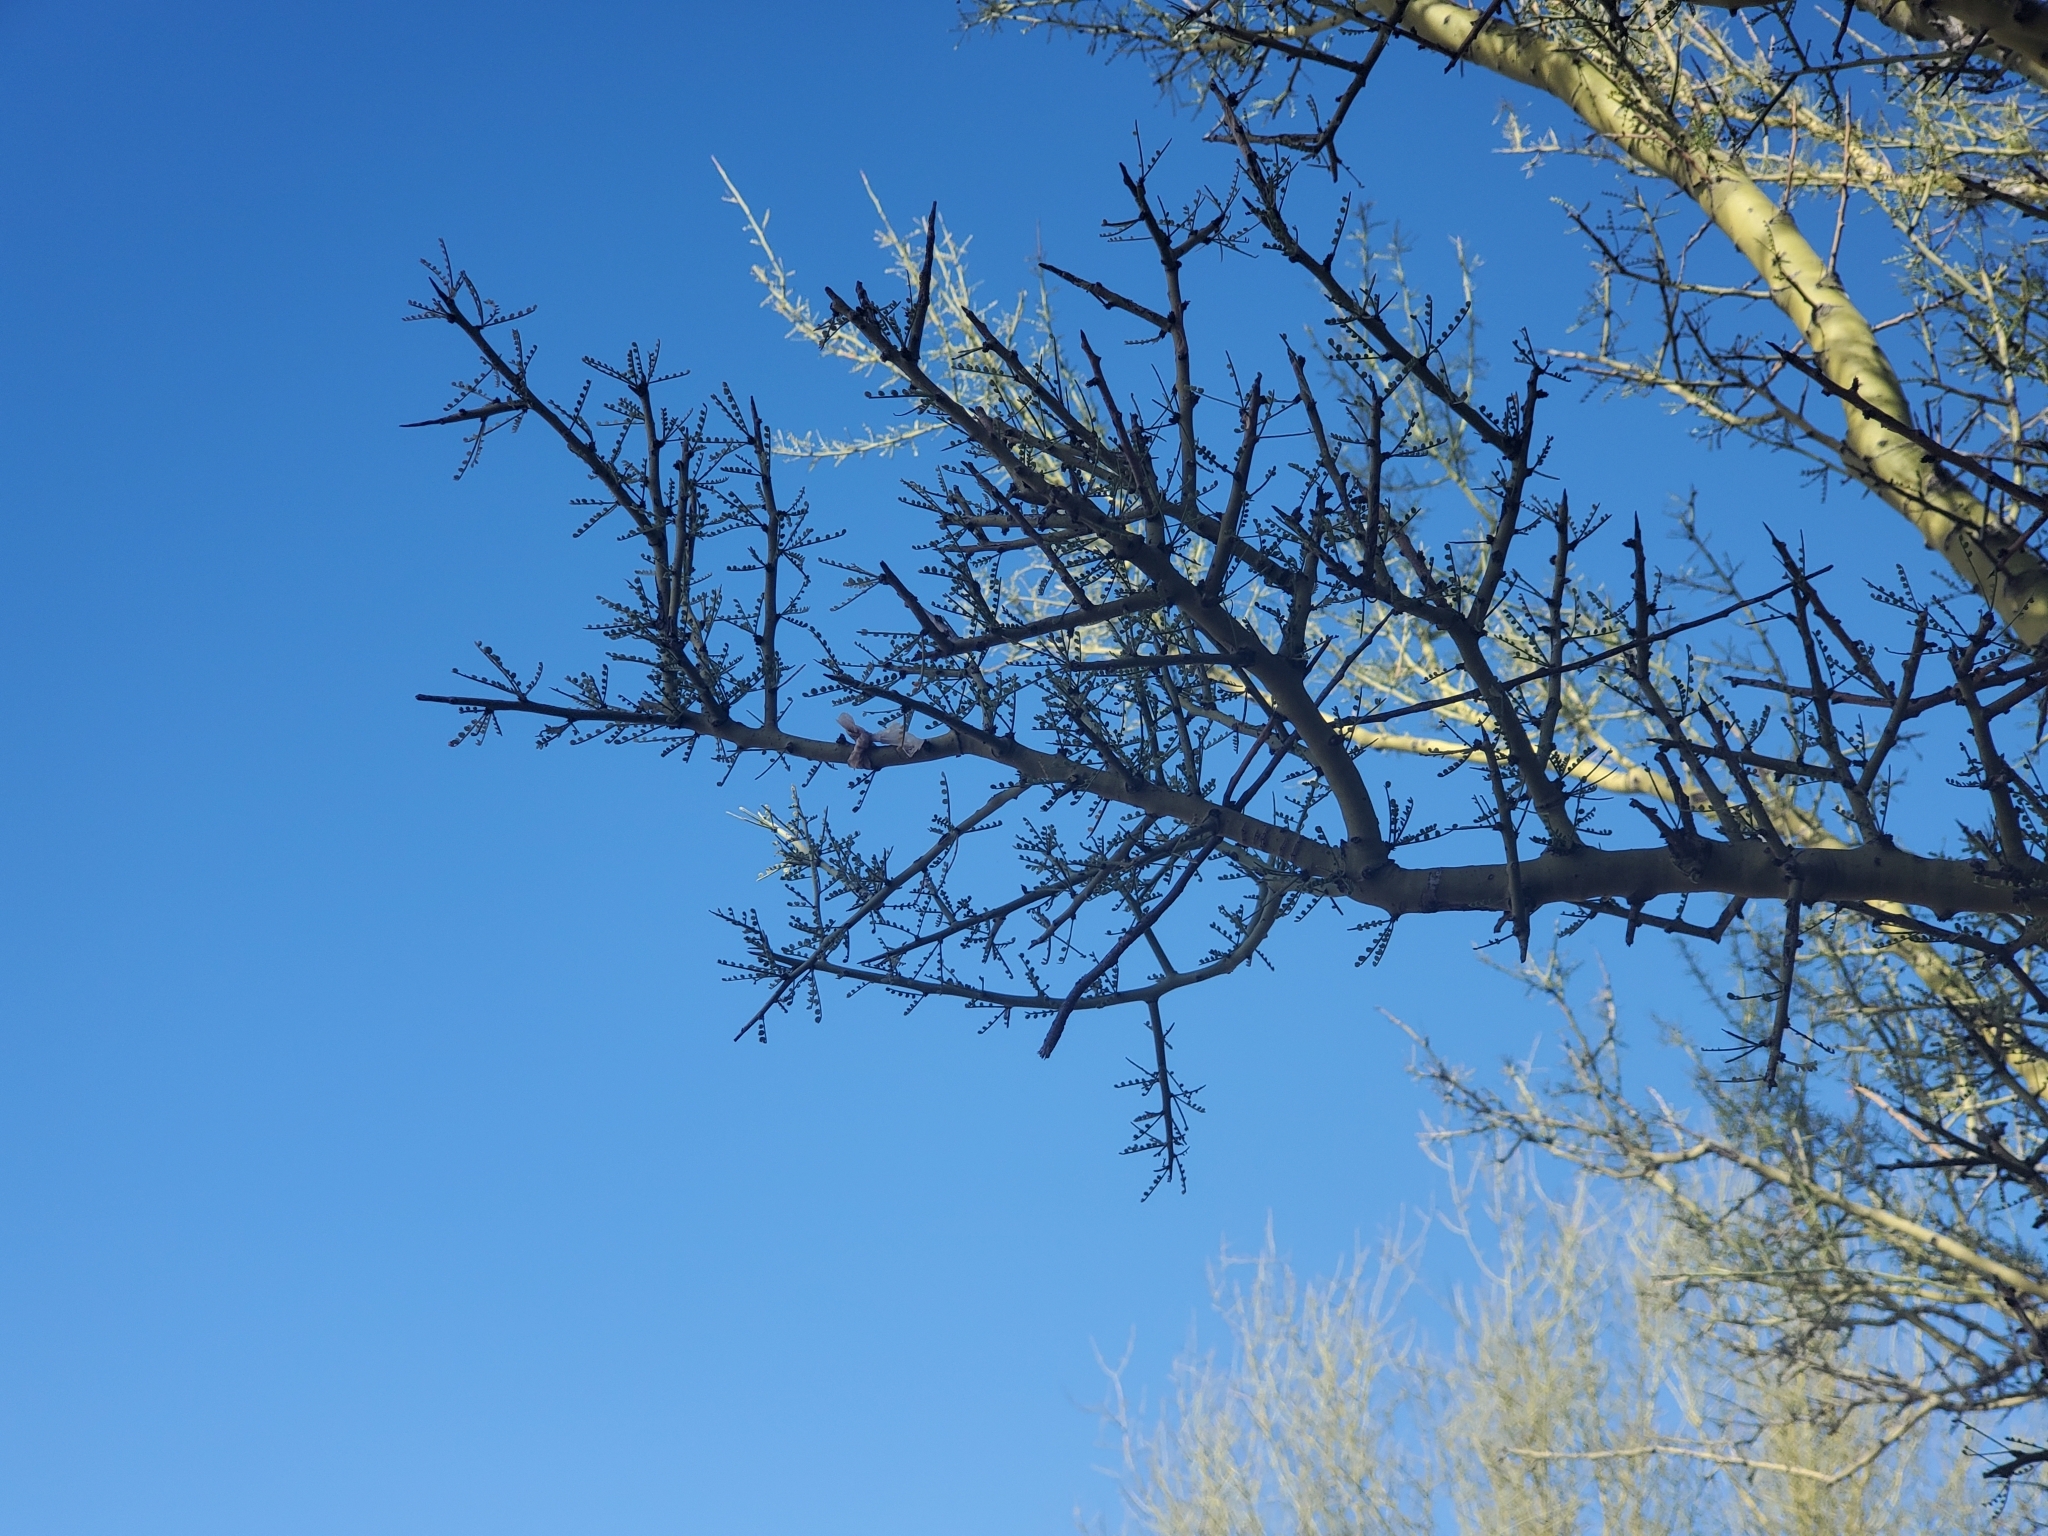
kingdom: Plantae
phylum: Tracheophyta
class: Magnoliopsida
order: Fabales
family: Fabaceae
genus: Parkinsonia
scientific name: Parkinsonia microphylla
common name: Yellow paloverde
